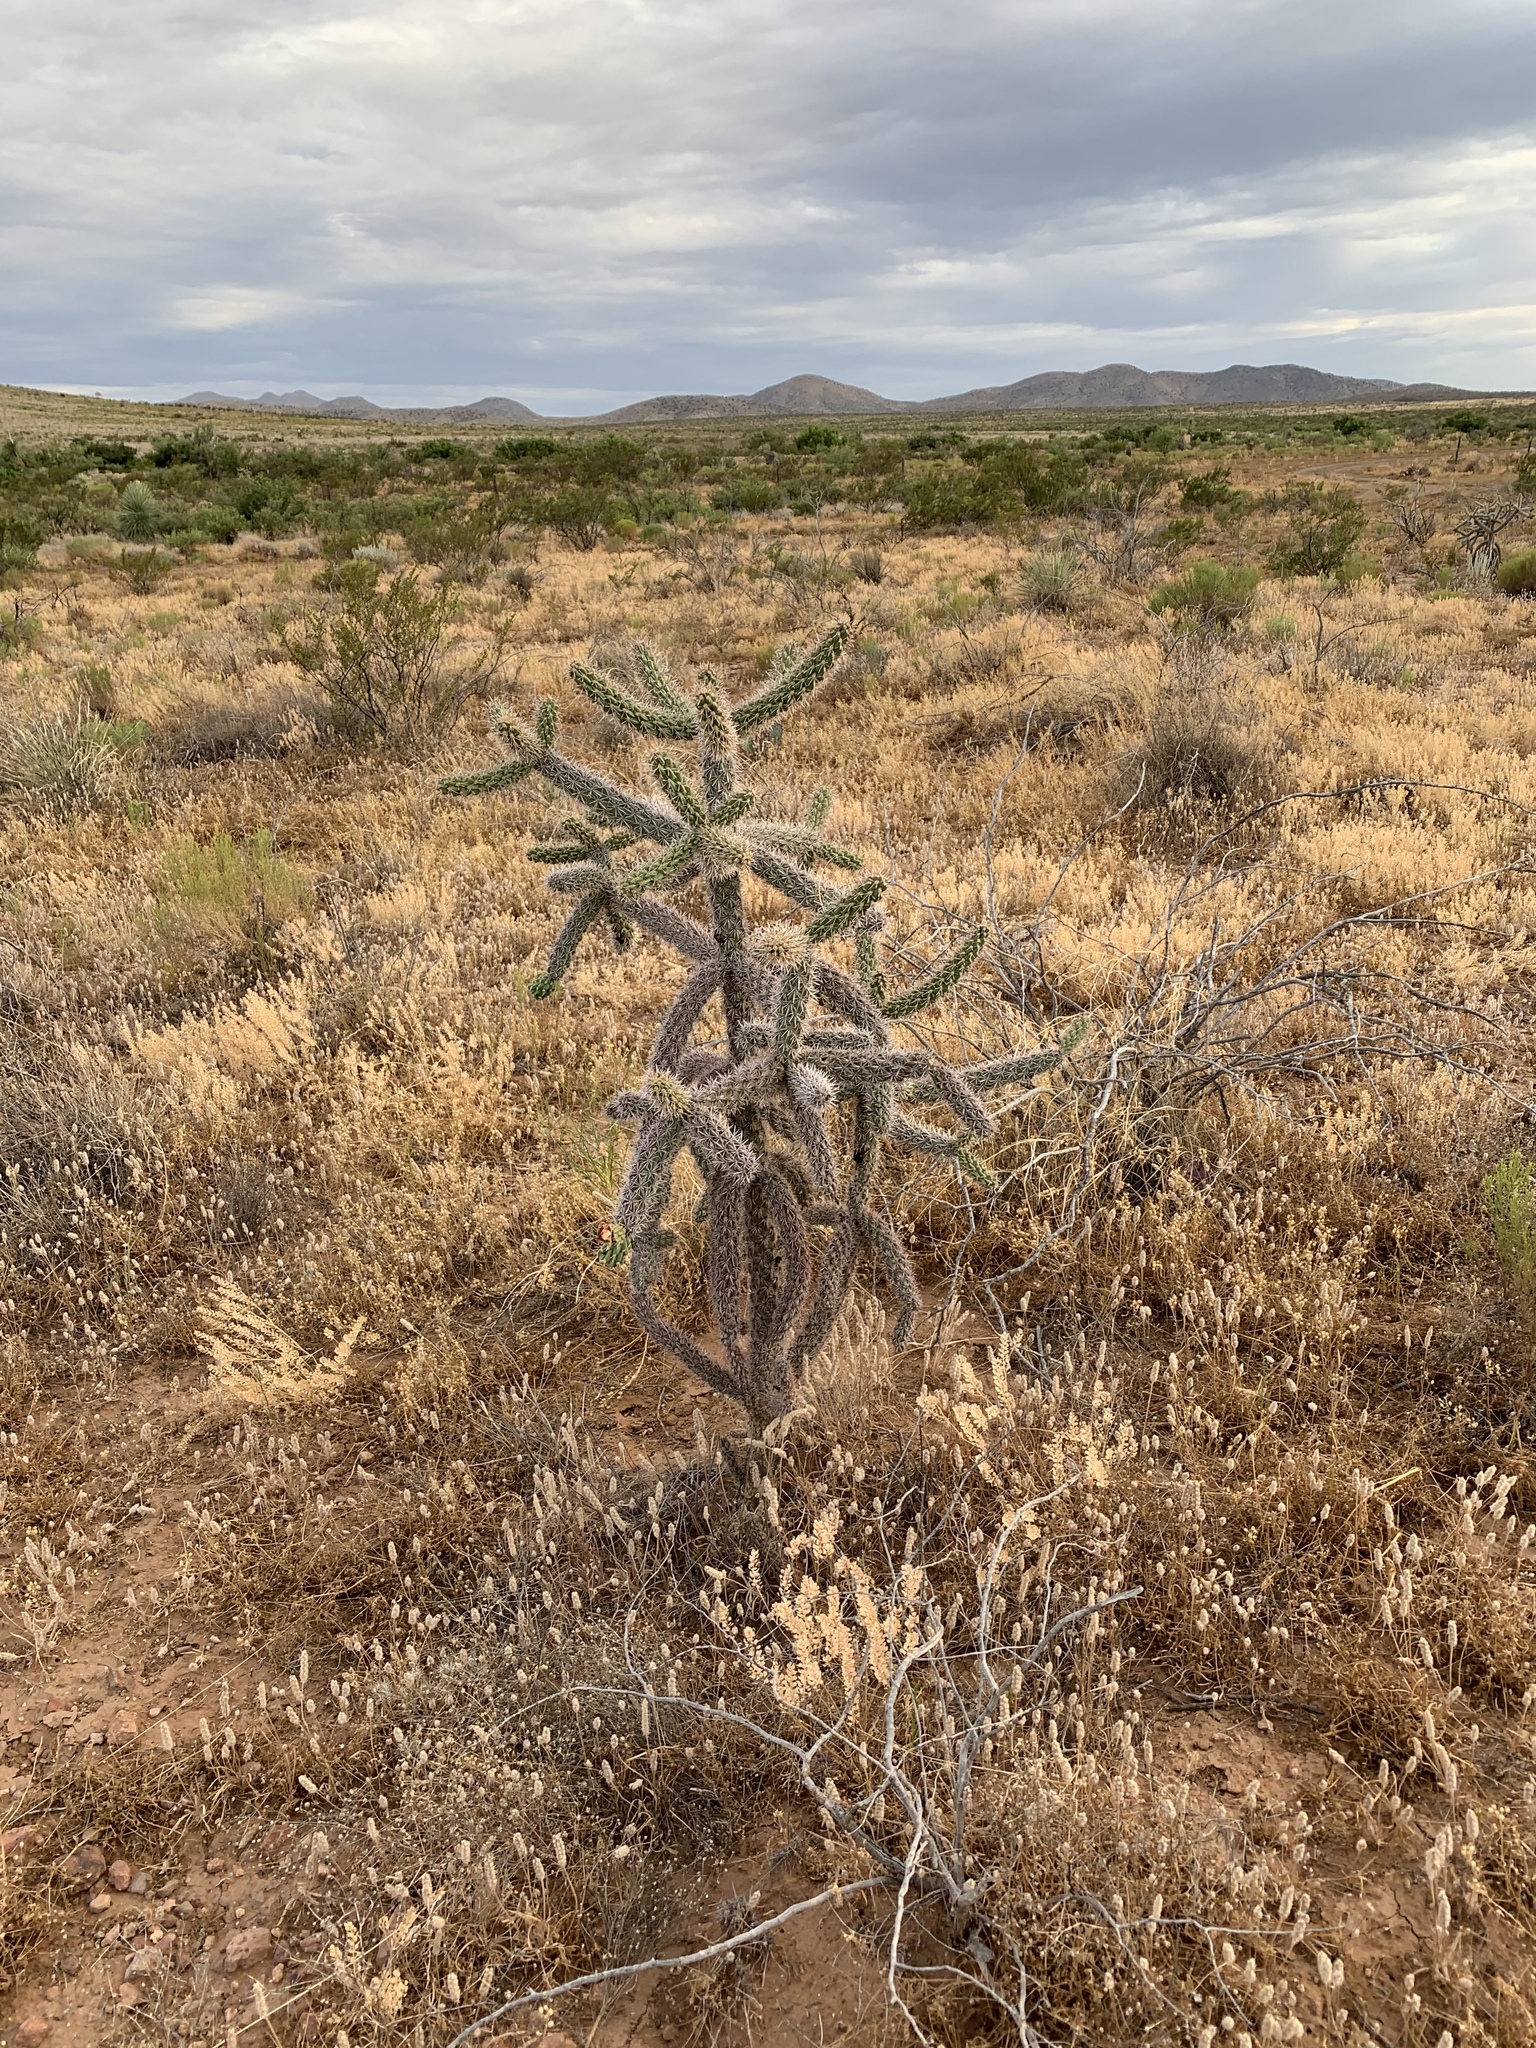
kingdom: Plantae
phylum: Tracheophyta
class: Magnoliopsida
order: Caryophyllales
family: Cactaceae
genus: Cylindropuntia
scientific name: Cylindropuntia imbricata
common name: Candelabrum cactus
